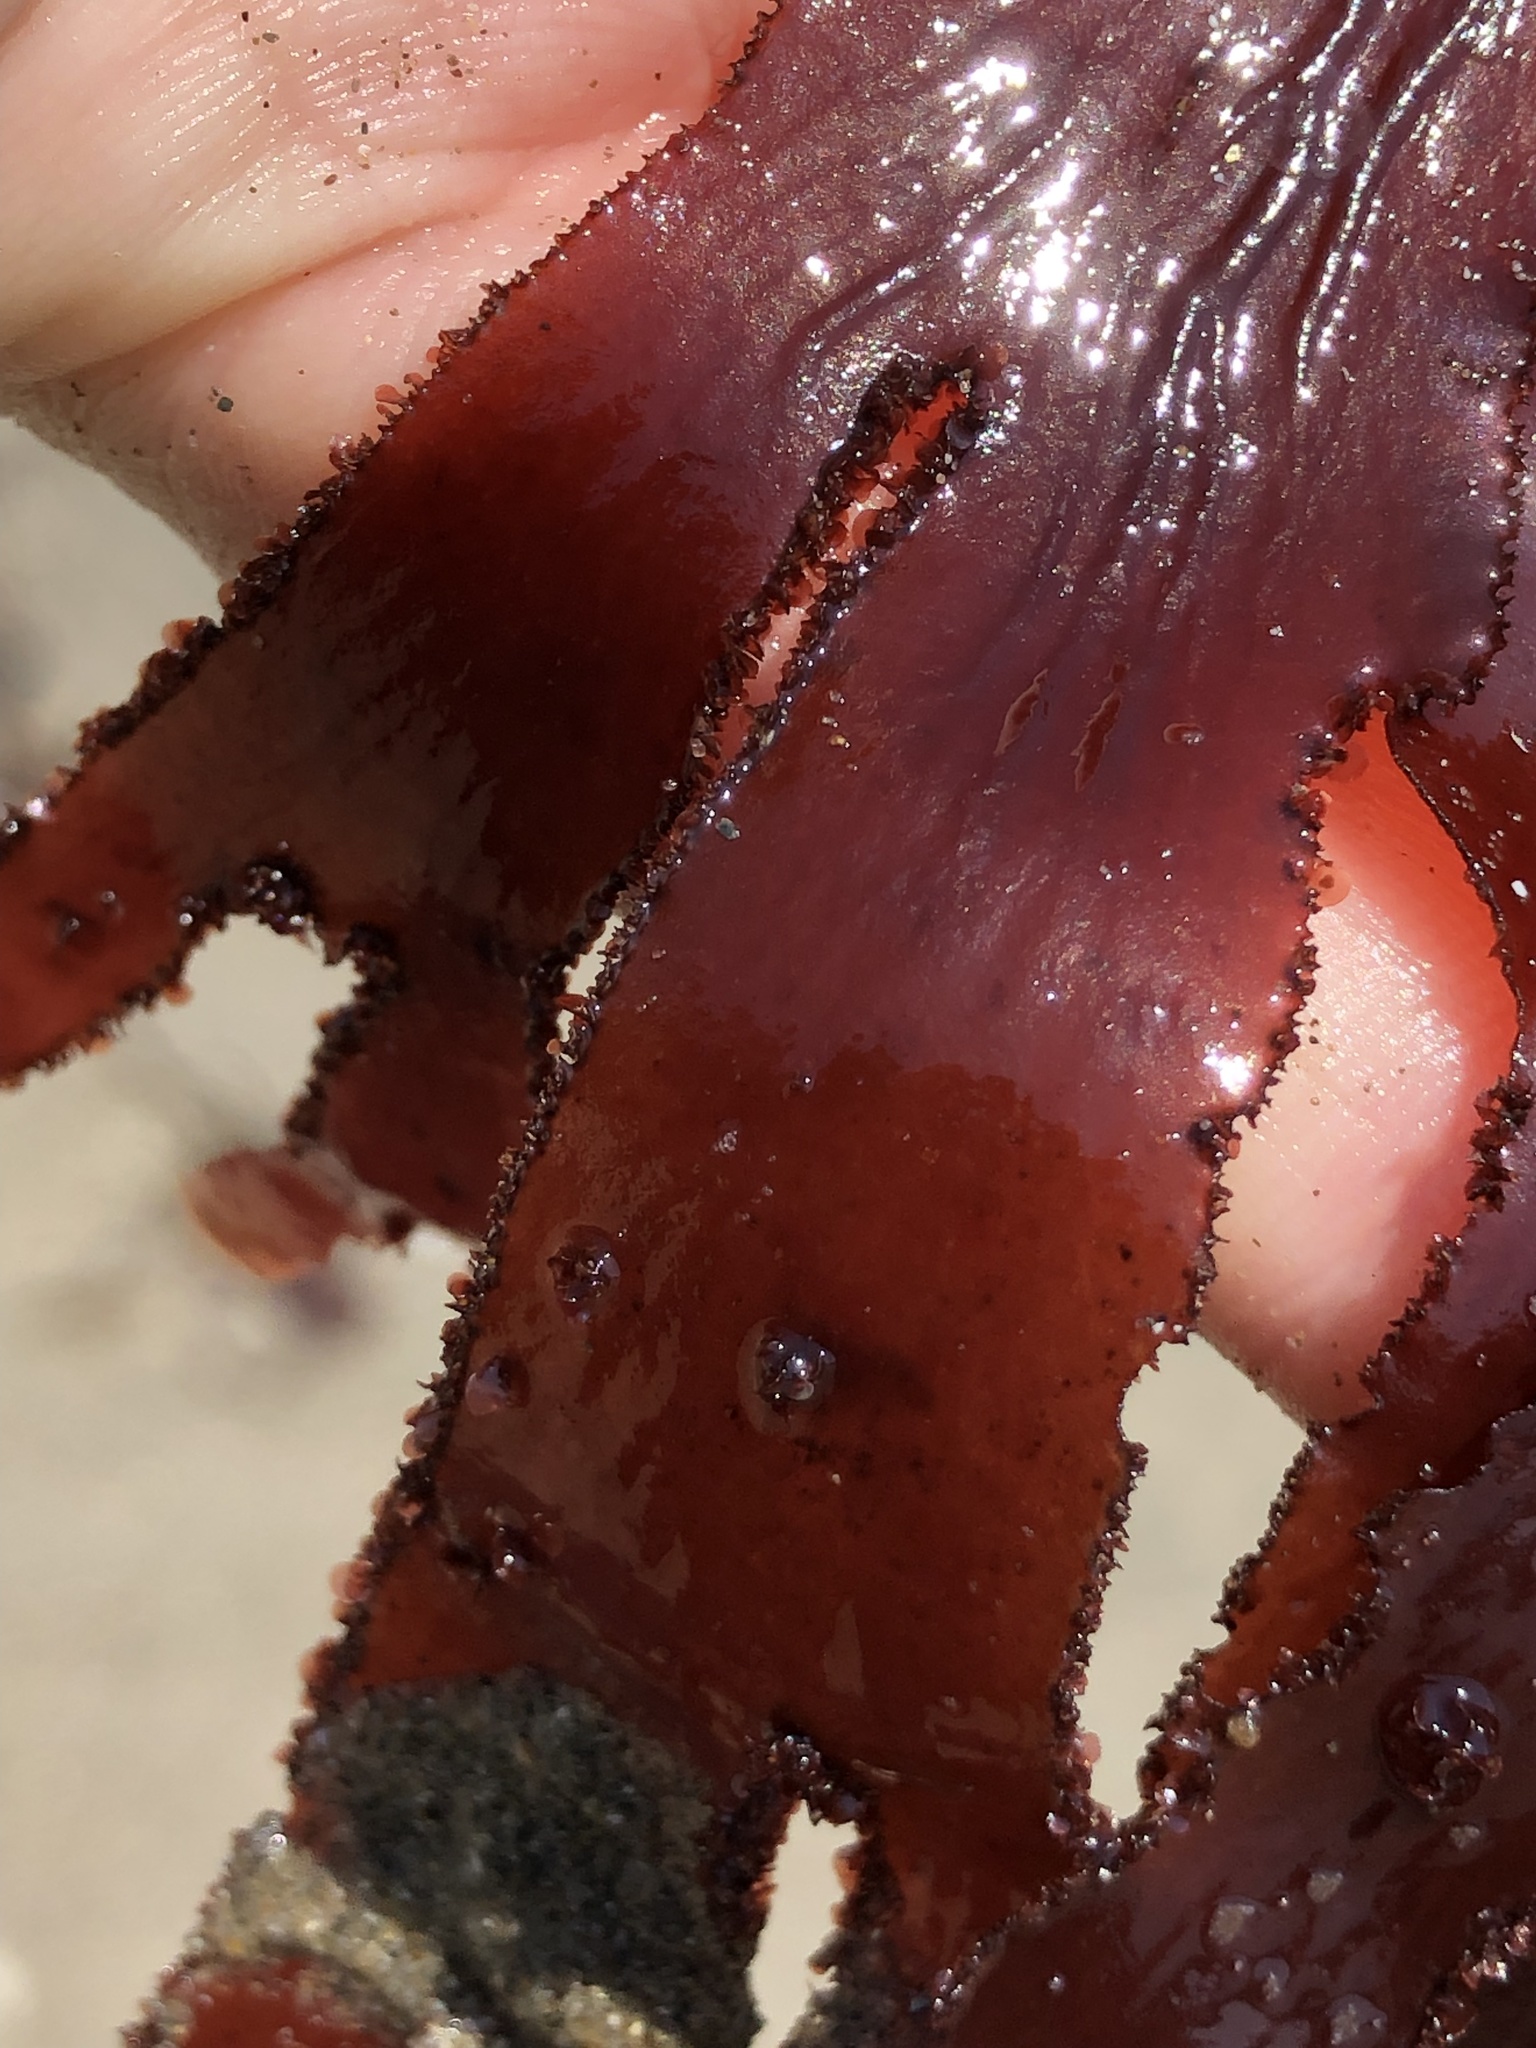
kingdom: Plantae
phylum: Rhodophyta
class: Florideophyceae
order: Ceramiales
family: Delesseriaceae
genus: Cryptopleura
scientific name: Cryptopleura ruprechtiana
